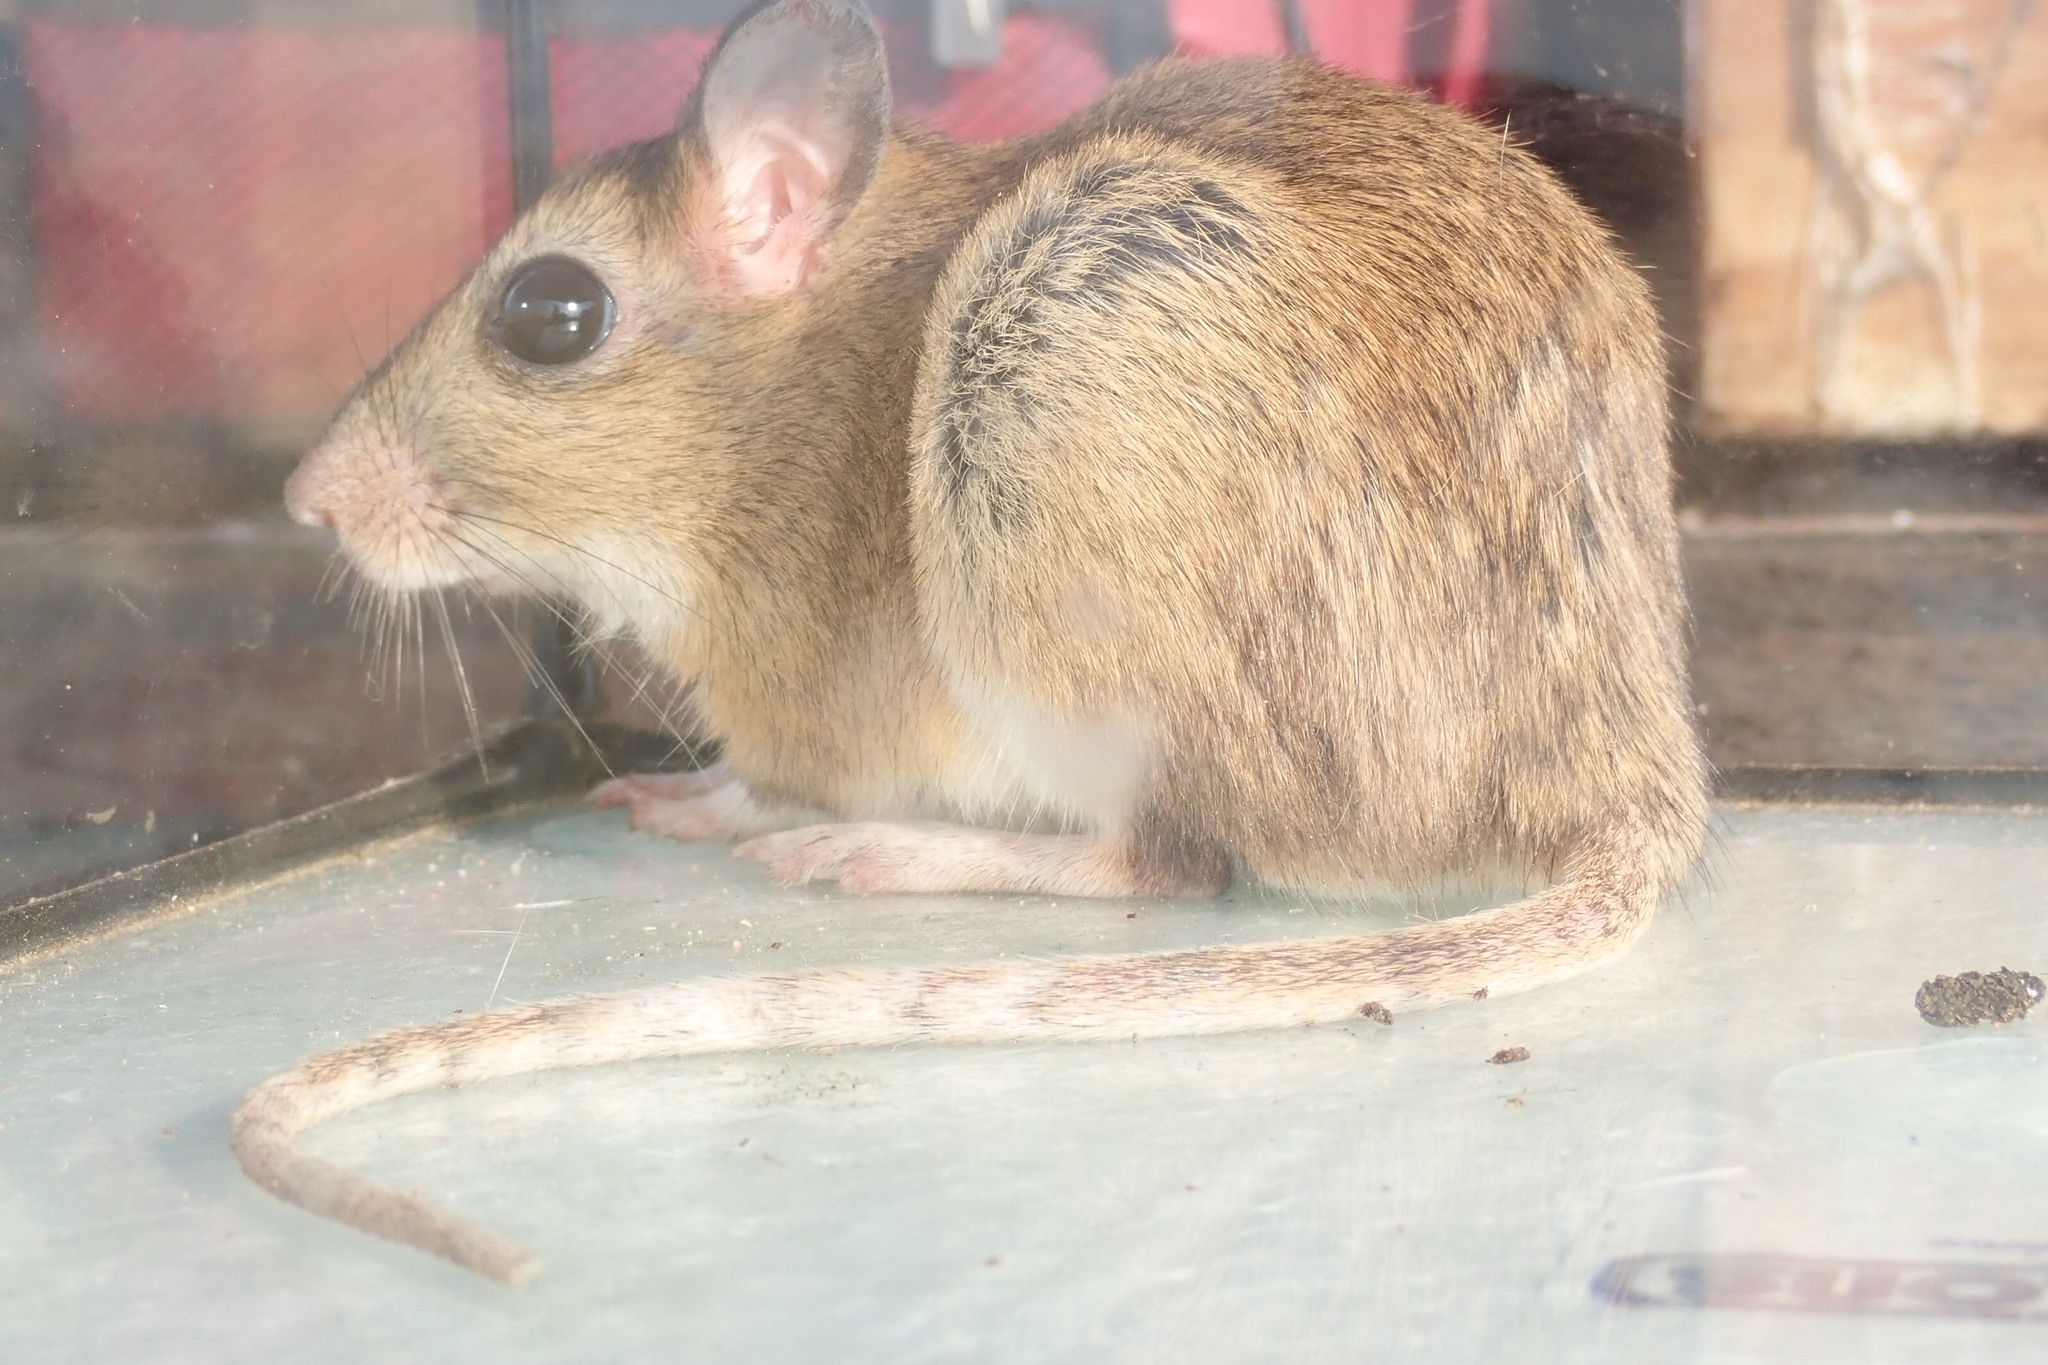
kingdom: Animalia
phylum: Chordata
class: Mammalia
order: Rodentia
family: Muridae
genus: Gerbilliscus
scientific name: Gerbilliscus brantsii
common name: Highveld gerbil
